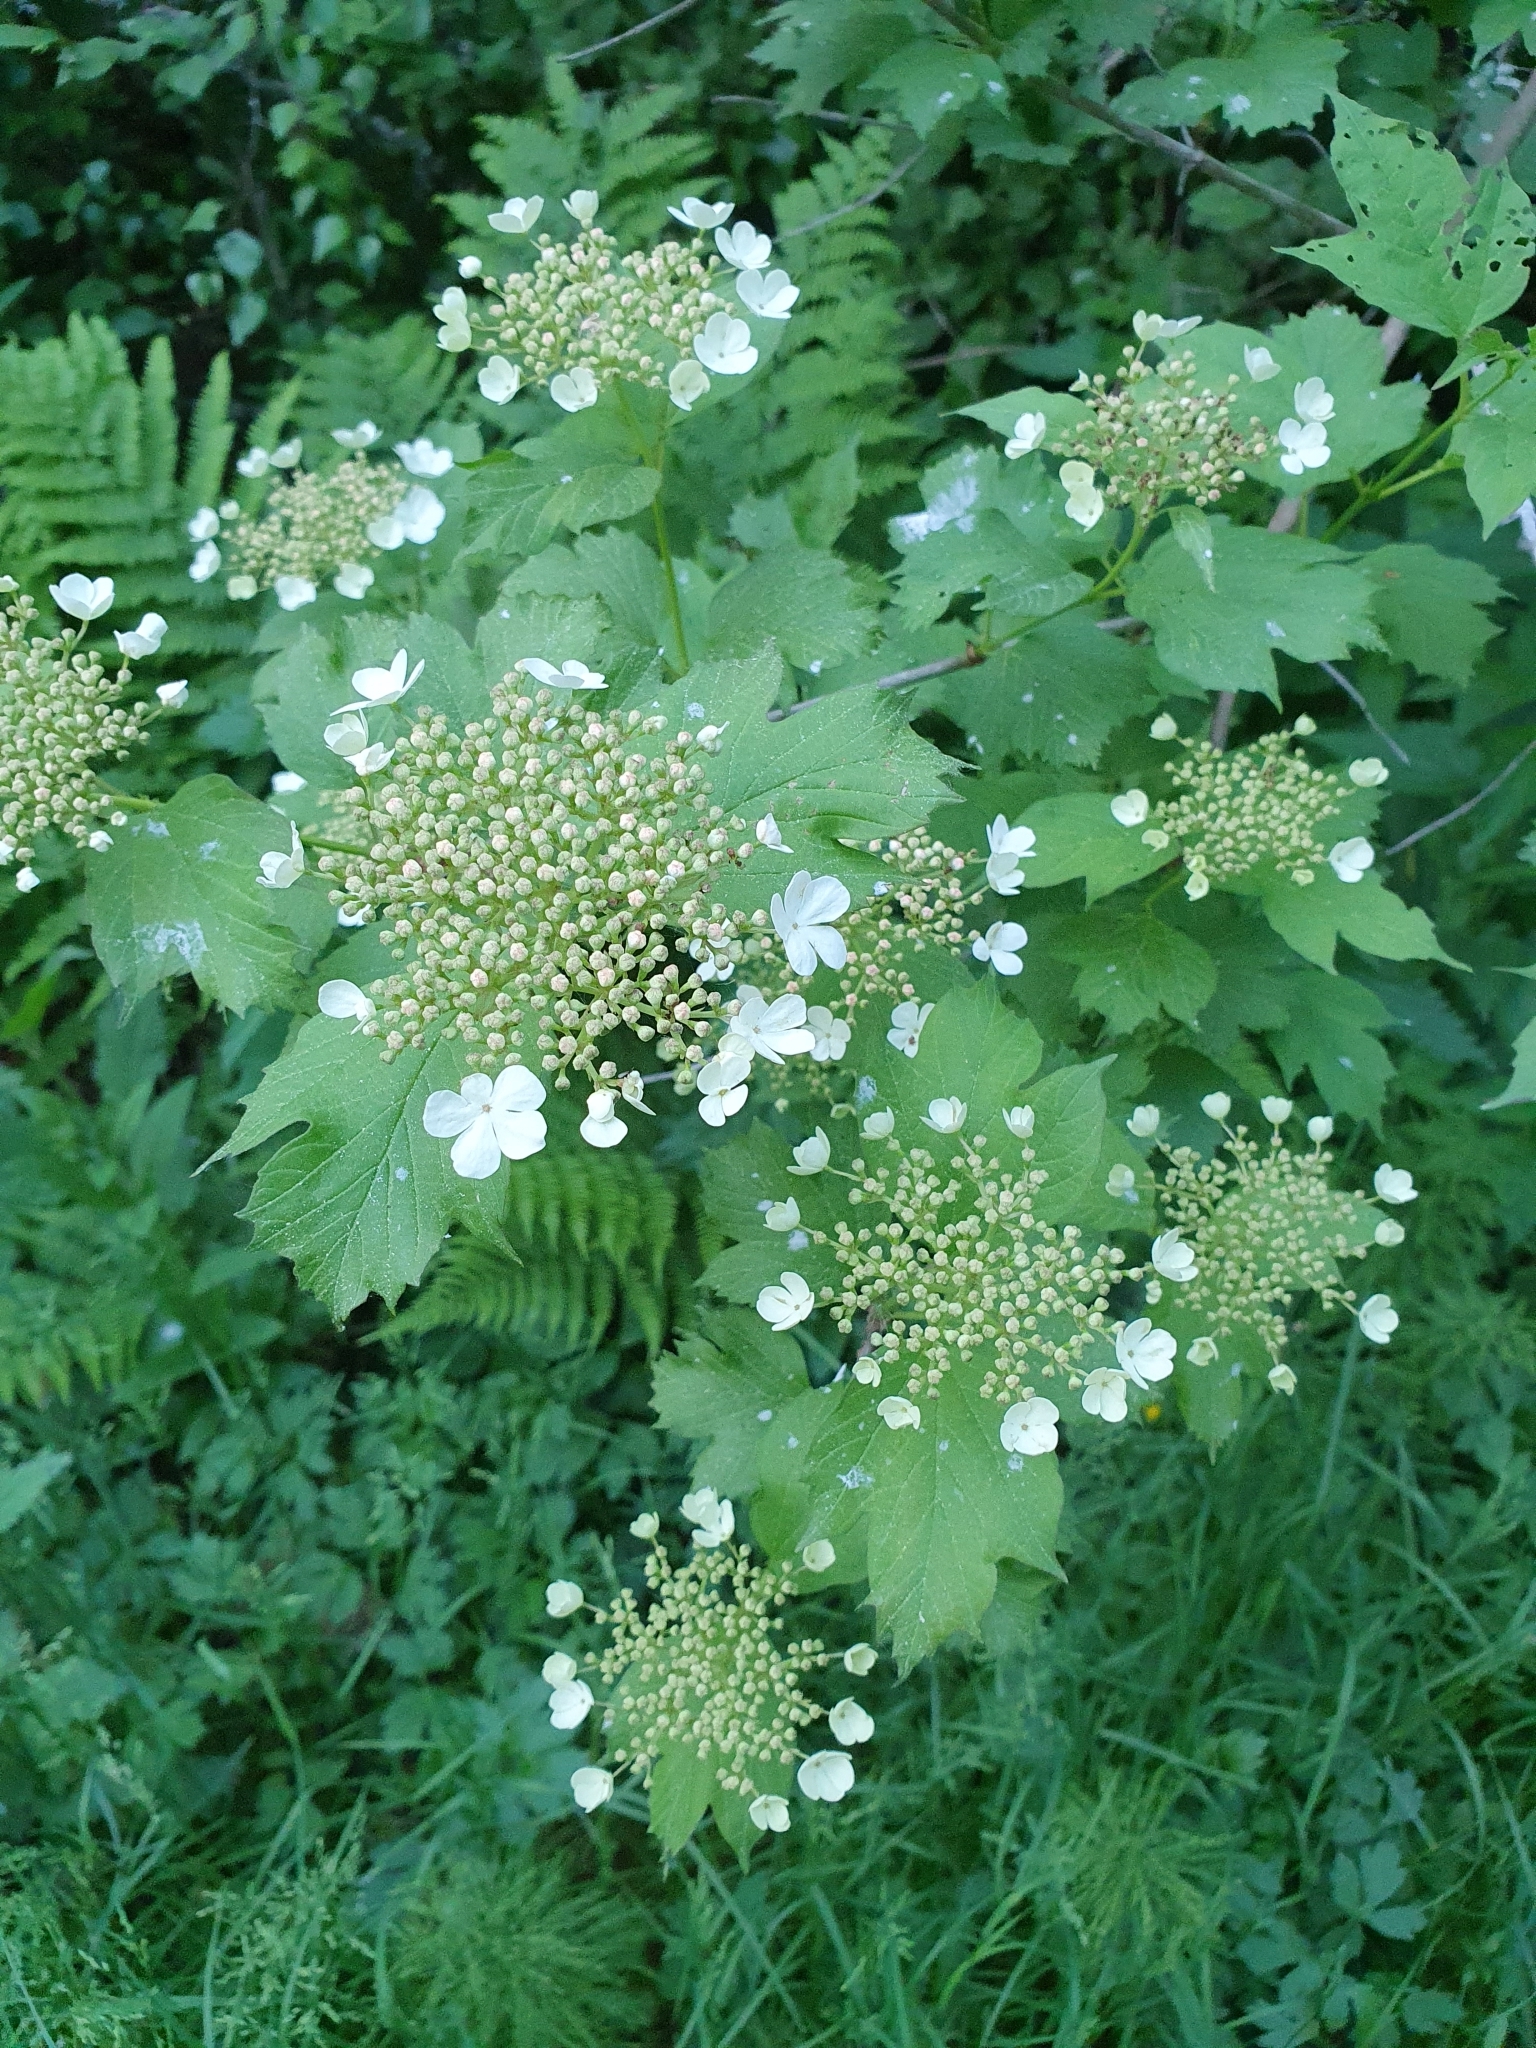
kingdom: Plantae
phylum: Tracheophyta
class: Magnoliopsida
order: Dipsacales
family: Viburnaceae
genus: Viburnum
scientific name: Viburnum opulus
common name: Guelder-rose
